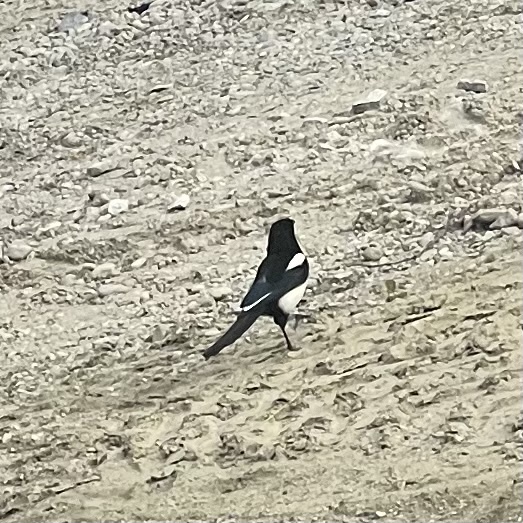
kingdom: Animalia
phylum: Chordata
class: Aves
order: Passeriformes
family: Corvidae
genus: Pica
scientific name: Pica pica
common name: Eurasian magpie
